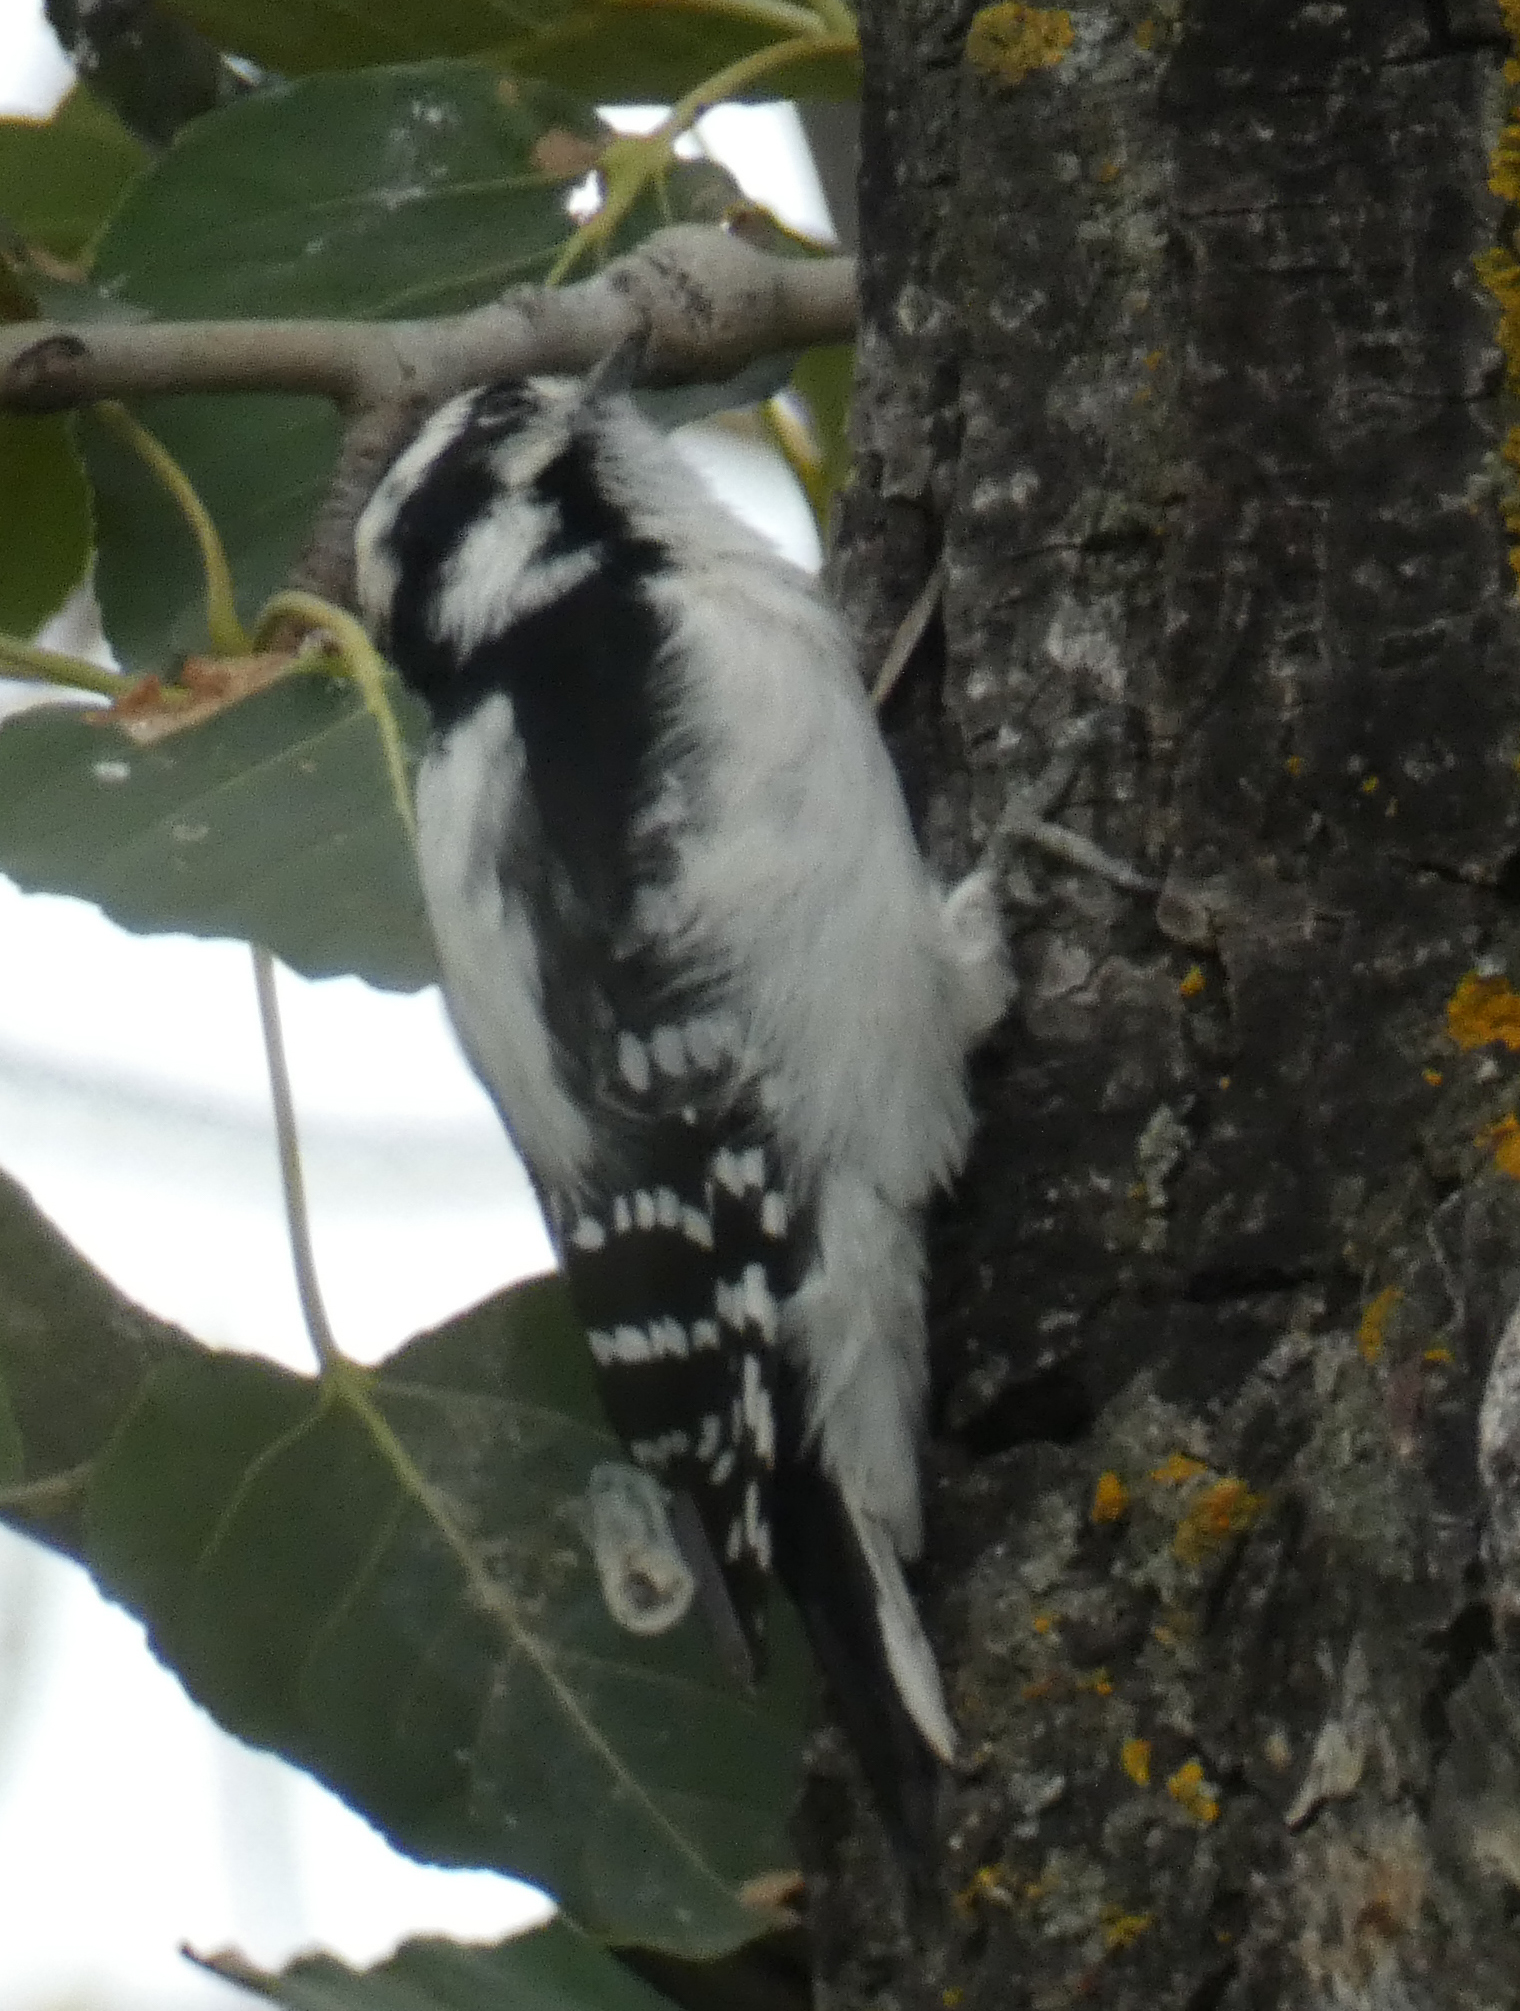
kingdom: Animalia
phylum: Chordata
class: Aves
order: Piciformes
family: Picidae
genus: Dryobates
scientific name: Dryobates pubescens
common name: Downy woodpecker
